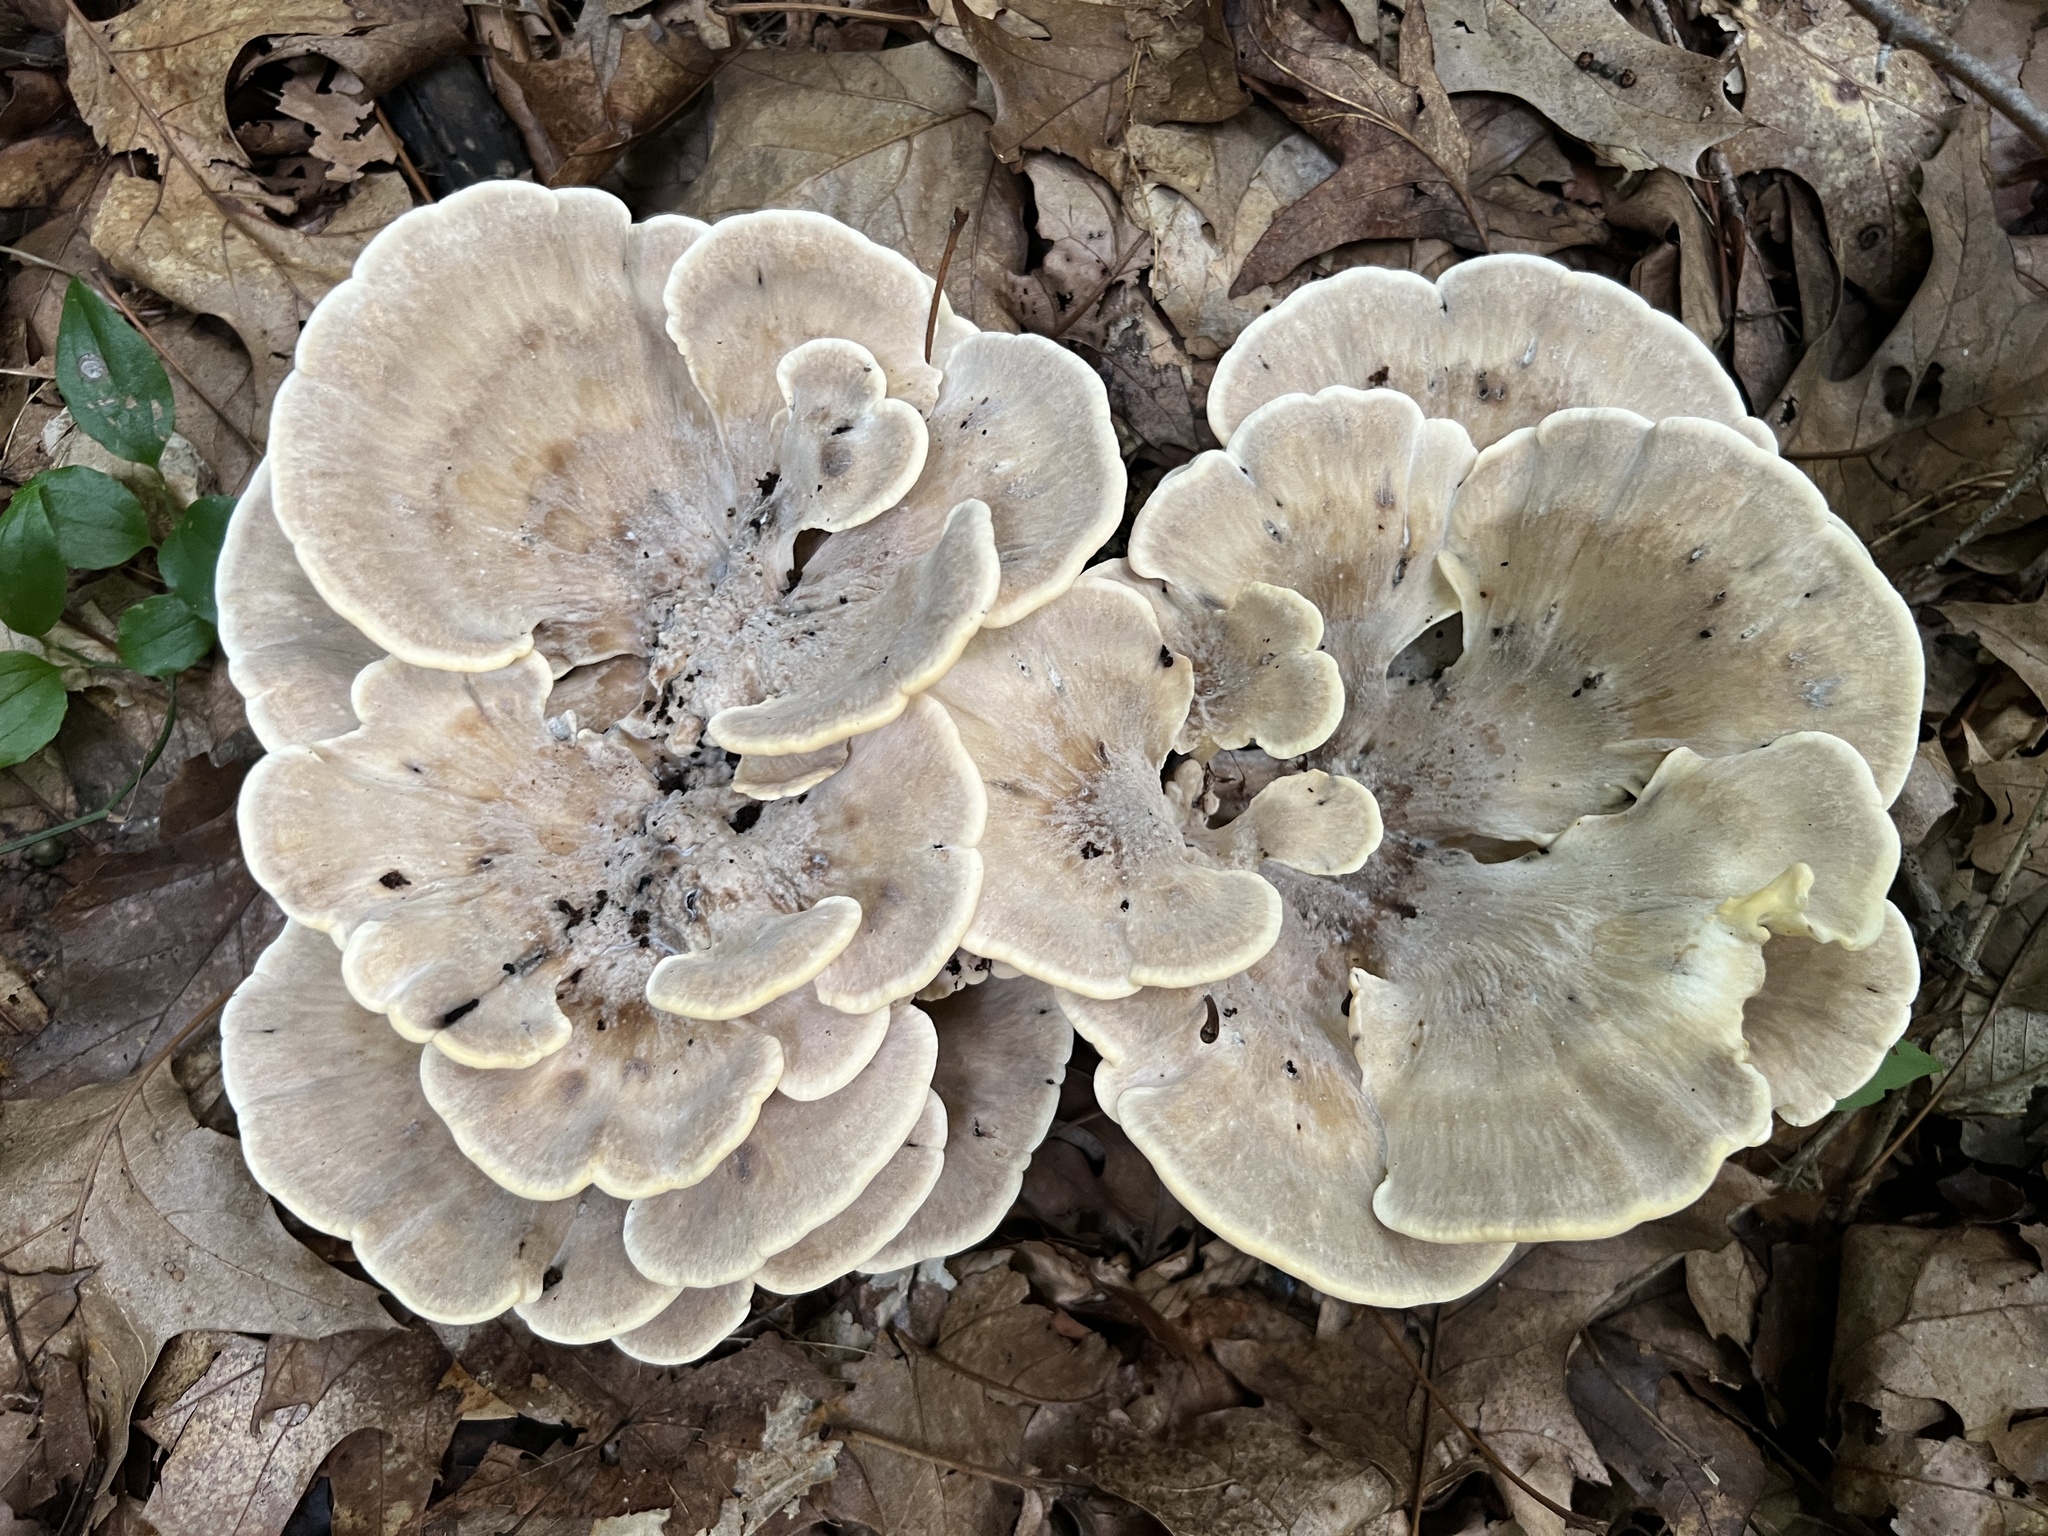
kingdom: Fungi
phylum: Basidiomycota
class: Agaricomycetes
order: Polyporales
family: Meripilaceae
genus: Meripilus
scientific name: Meripilus sumstinei
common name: Black-staining polypore
